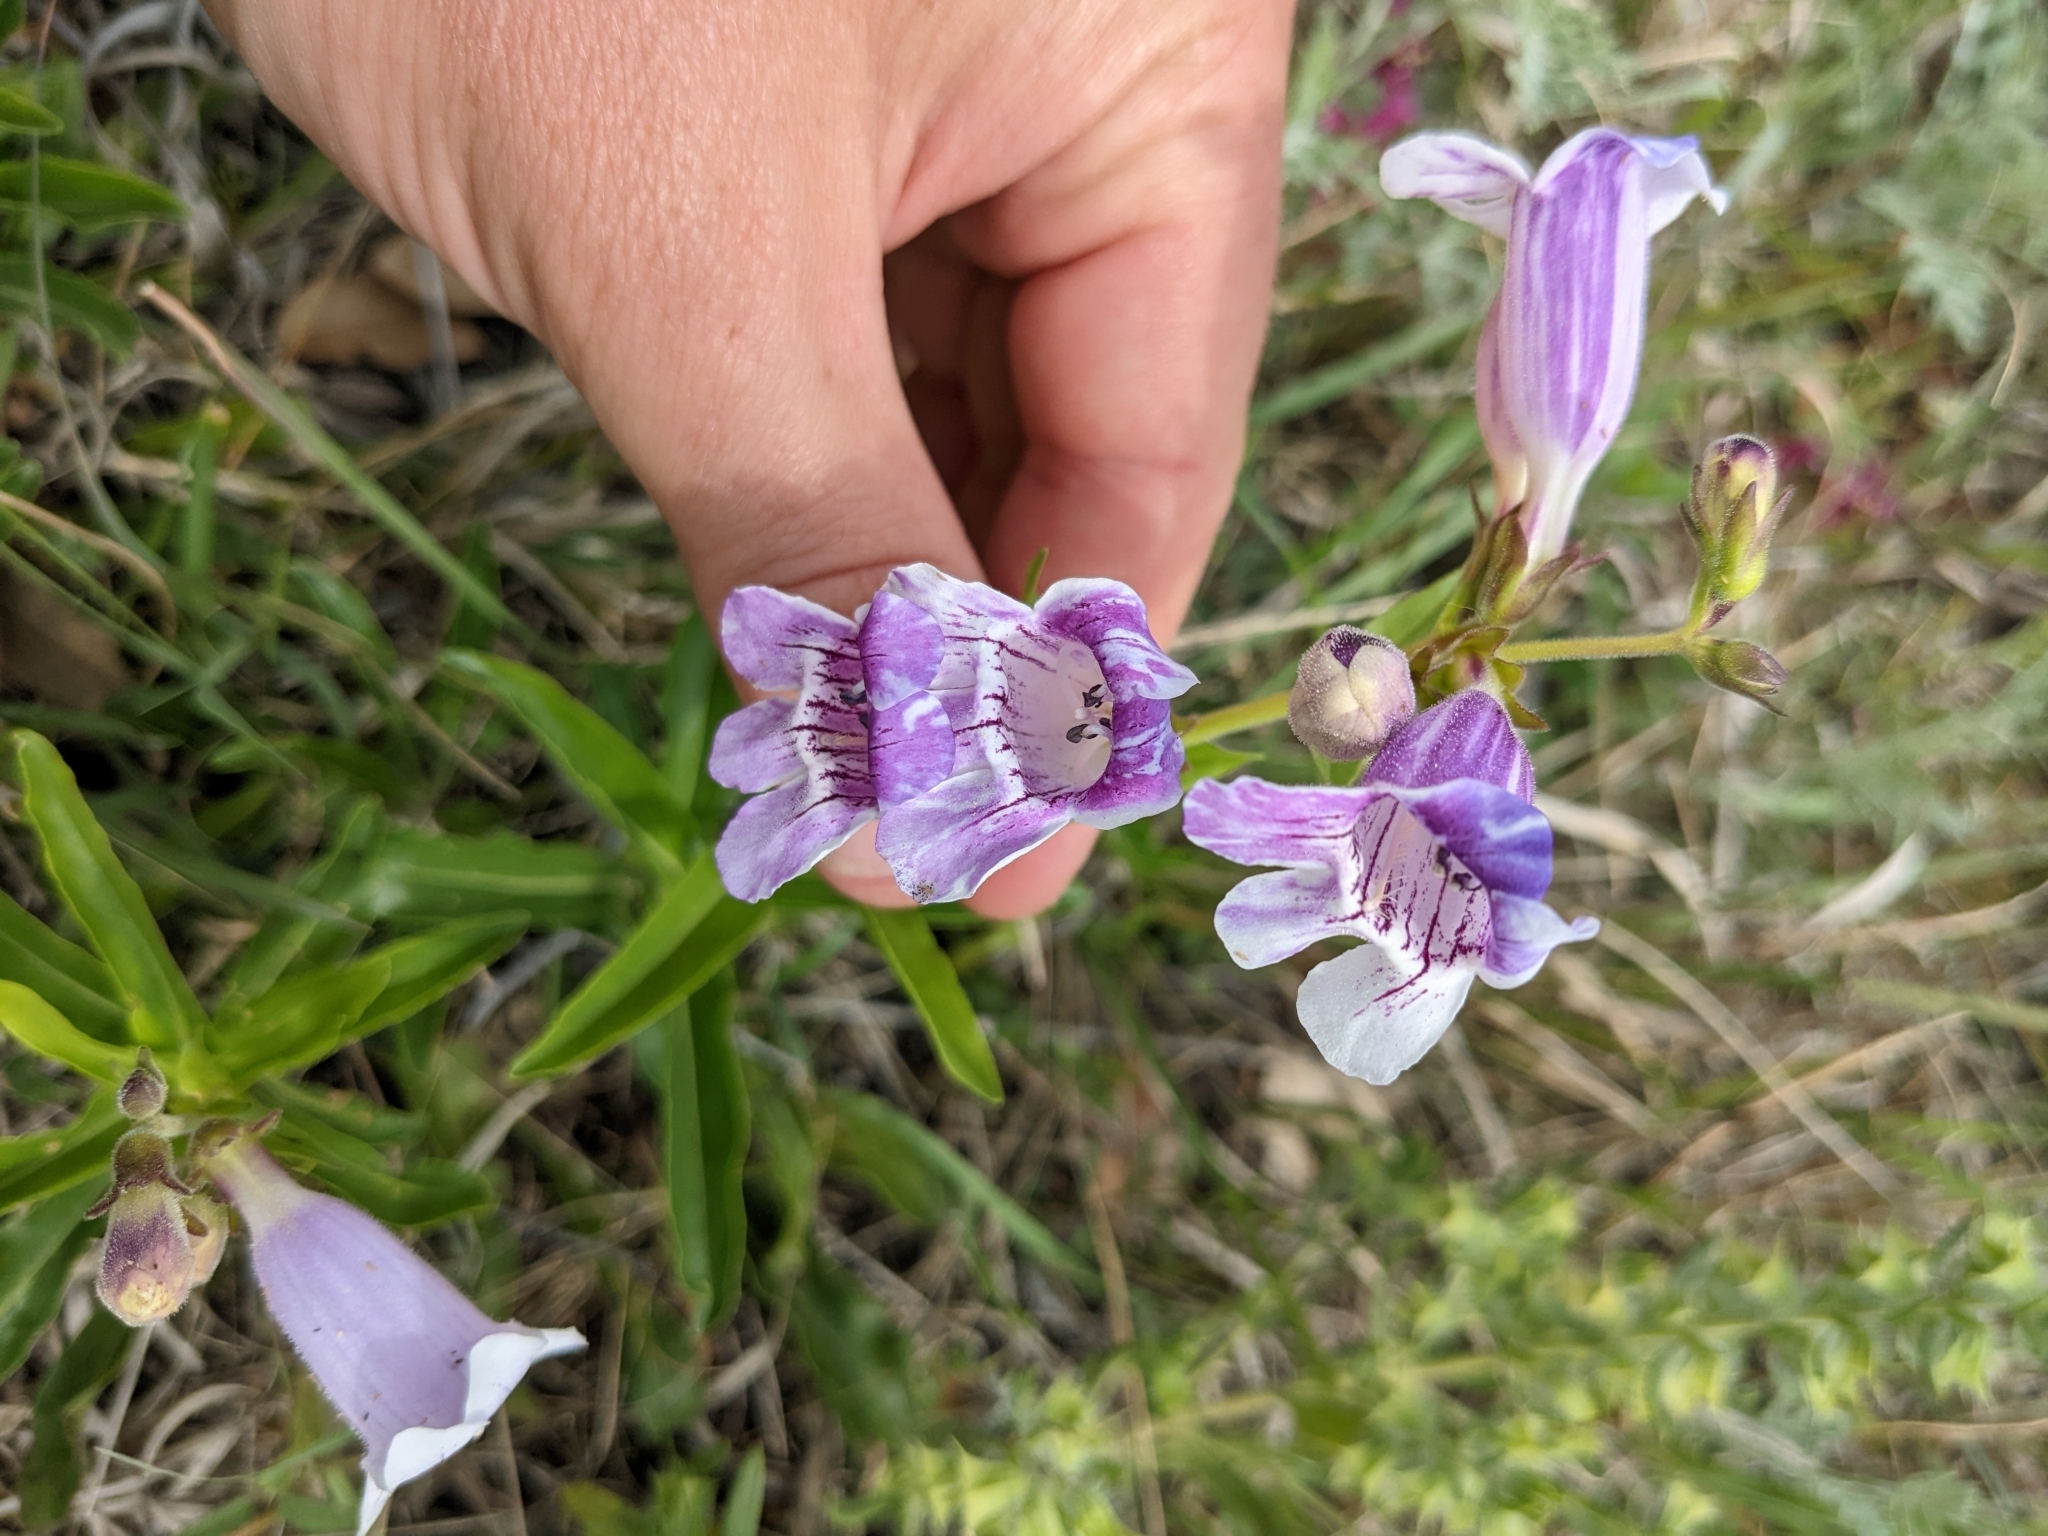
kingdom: Plantae
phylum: Tracheophyta
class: Magnoliopsida
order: Lamiales
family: Plantaginaceae
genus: Penstemon
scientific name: Penstemon cobaea
